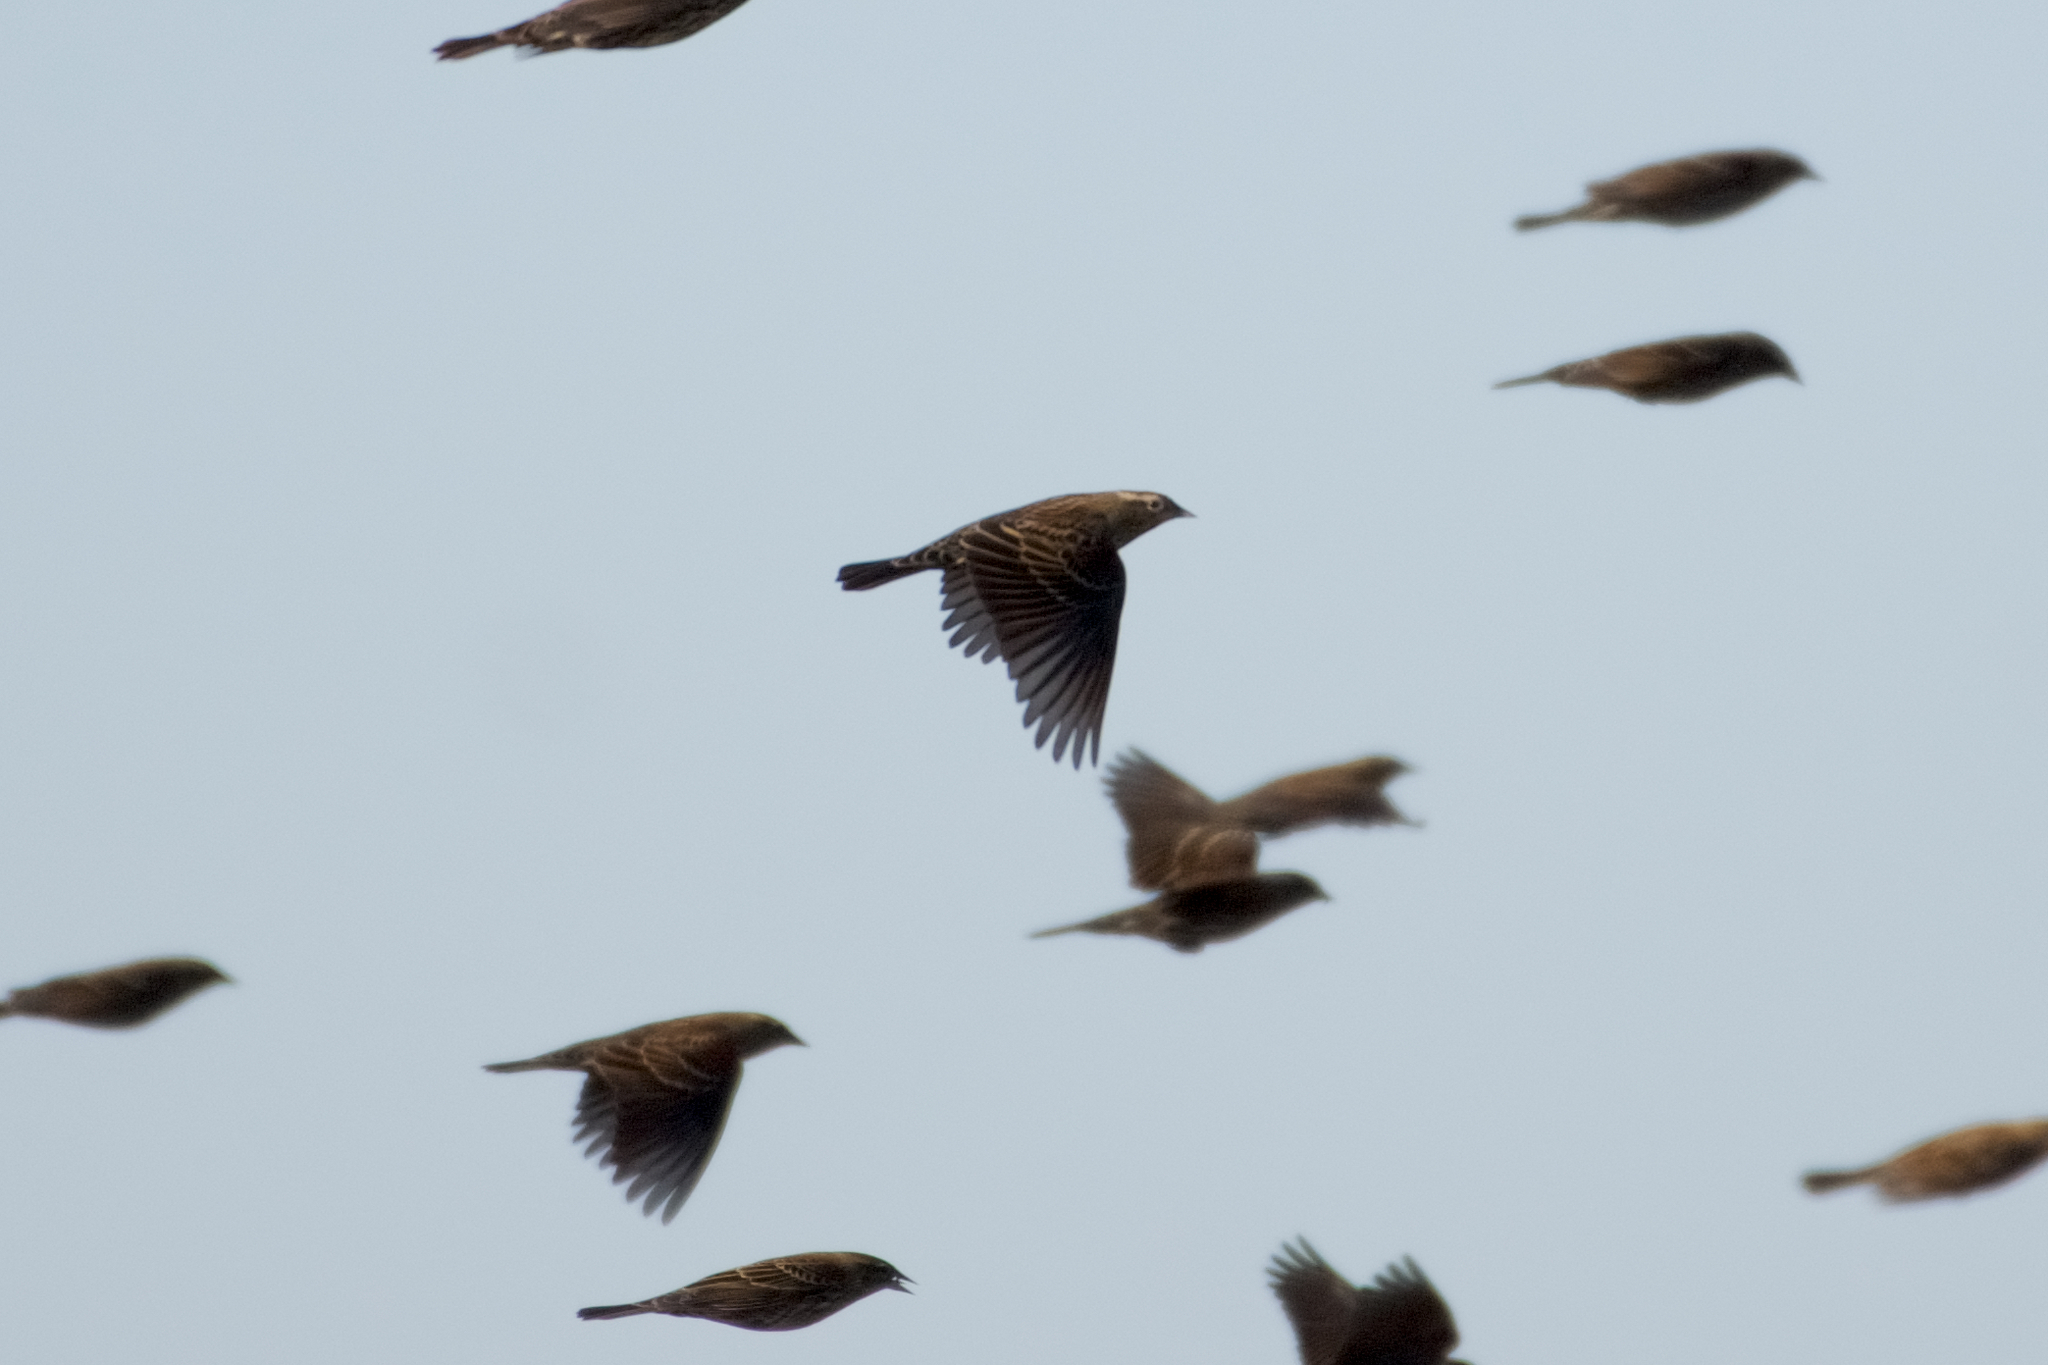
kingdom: Animalia
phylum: Chordata
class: Aves
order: Passeriformes
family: Icteridae
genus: Agelaius
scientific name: Agelaius phoeniceus
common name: Red-winged blackbird
